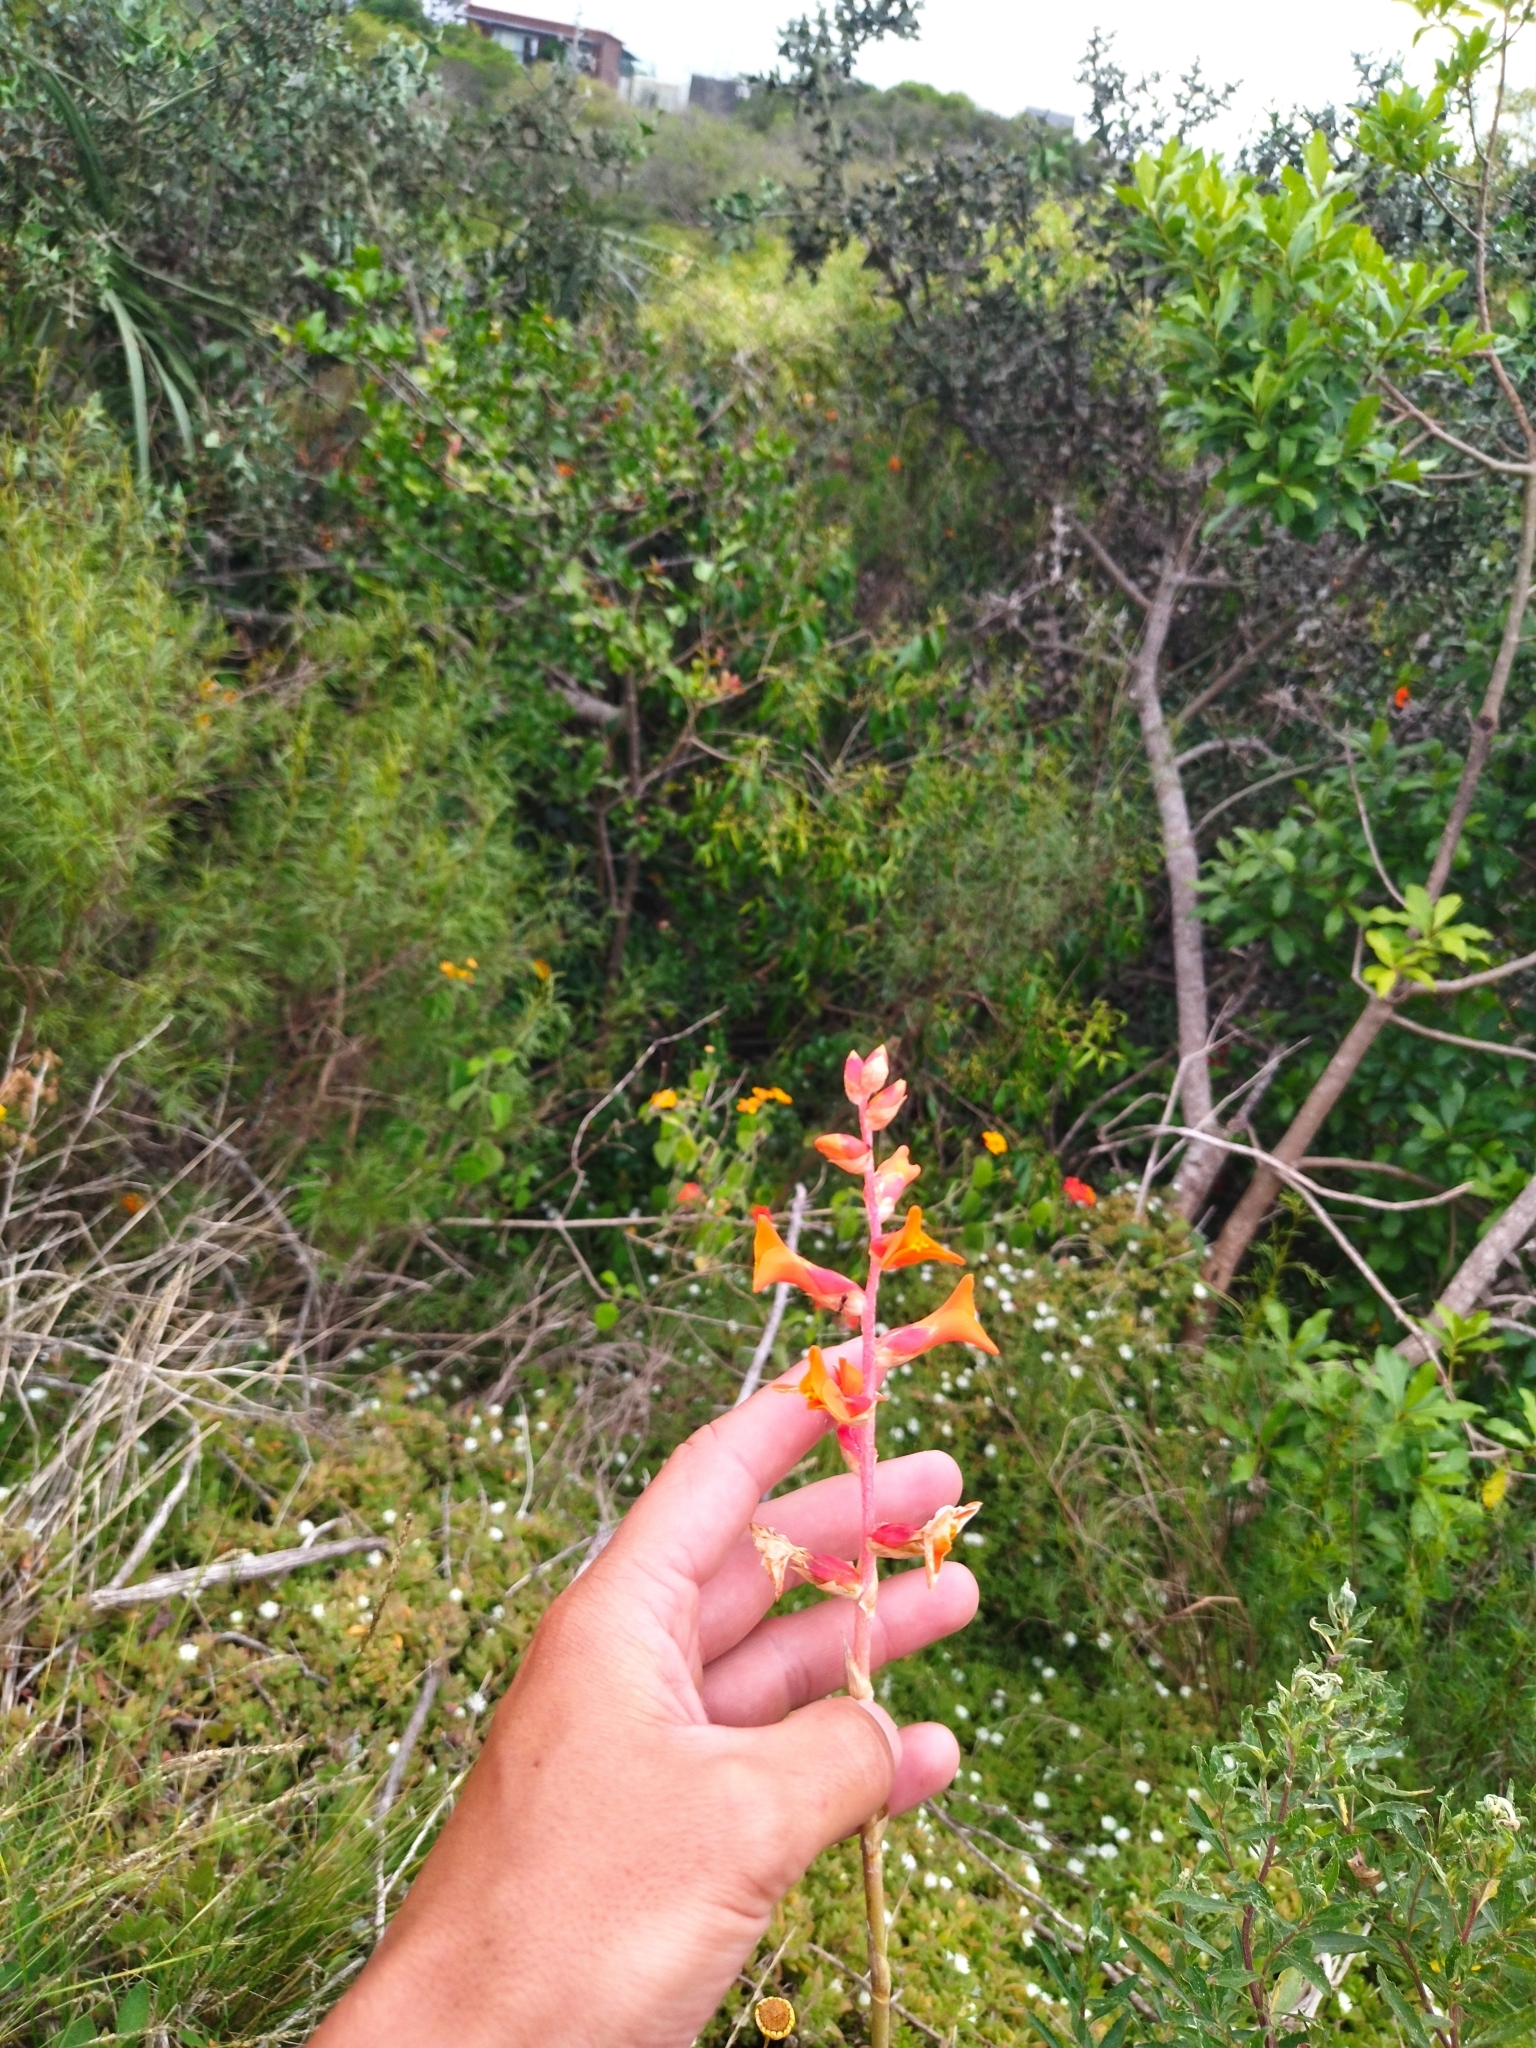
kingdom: Plantae
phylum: Tracheophyta
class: Liliopsida
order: Poales
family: Bromeliaceae
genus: Dyckia
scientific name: Dyckia remotiflora
